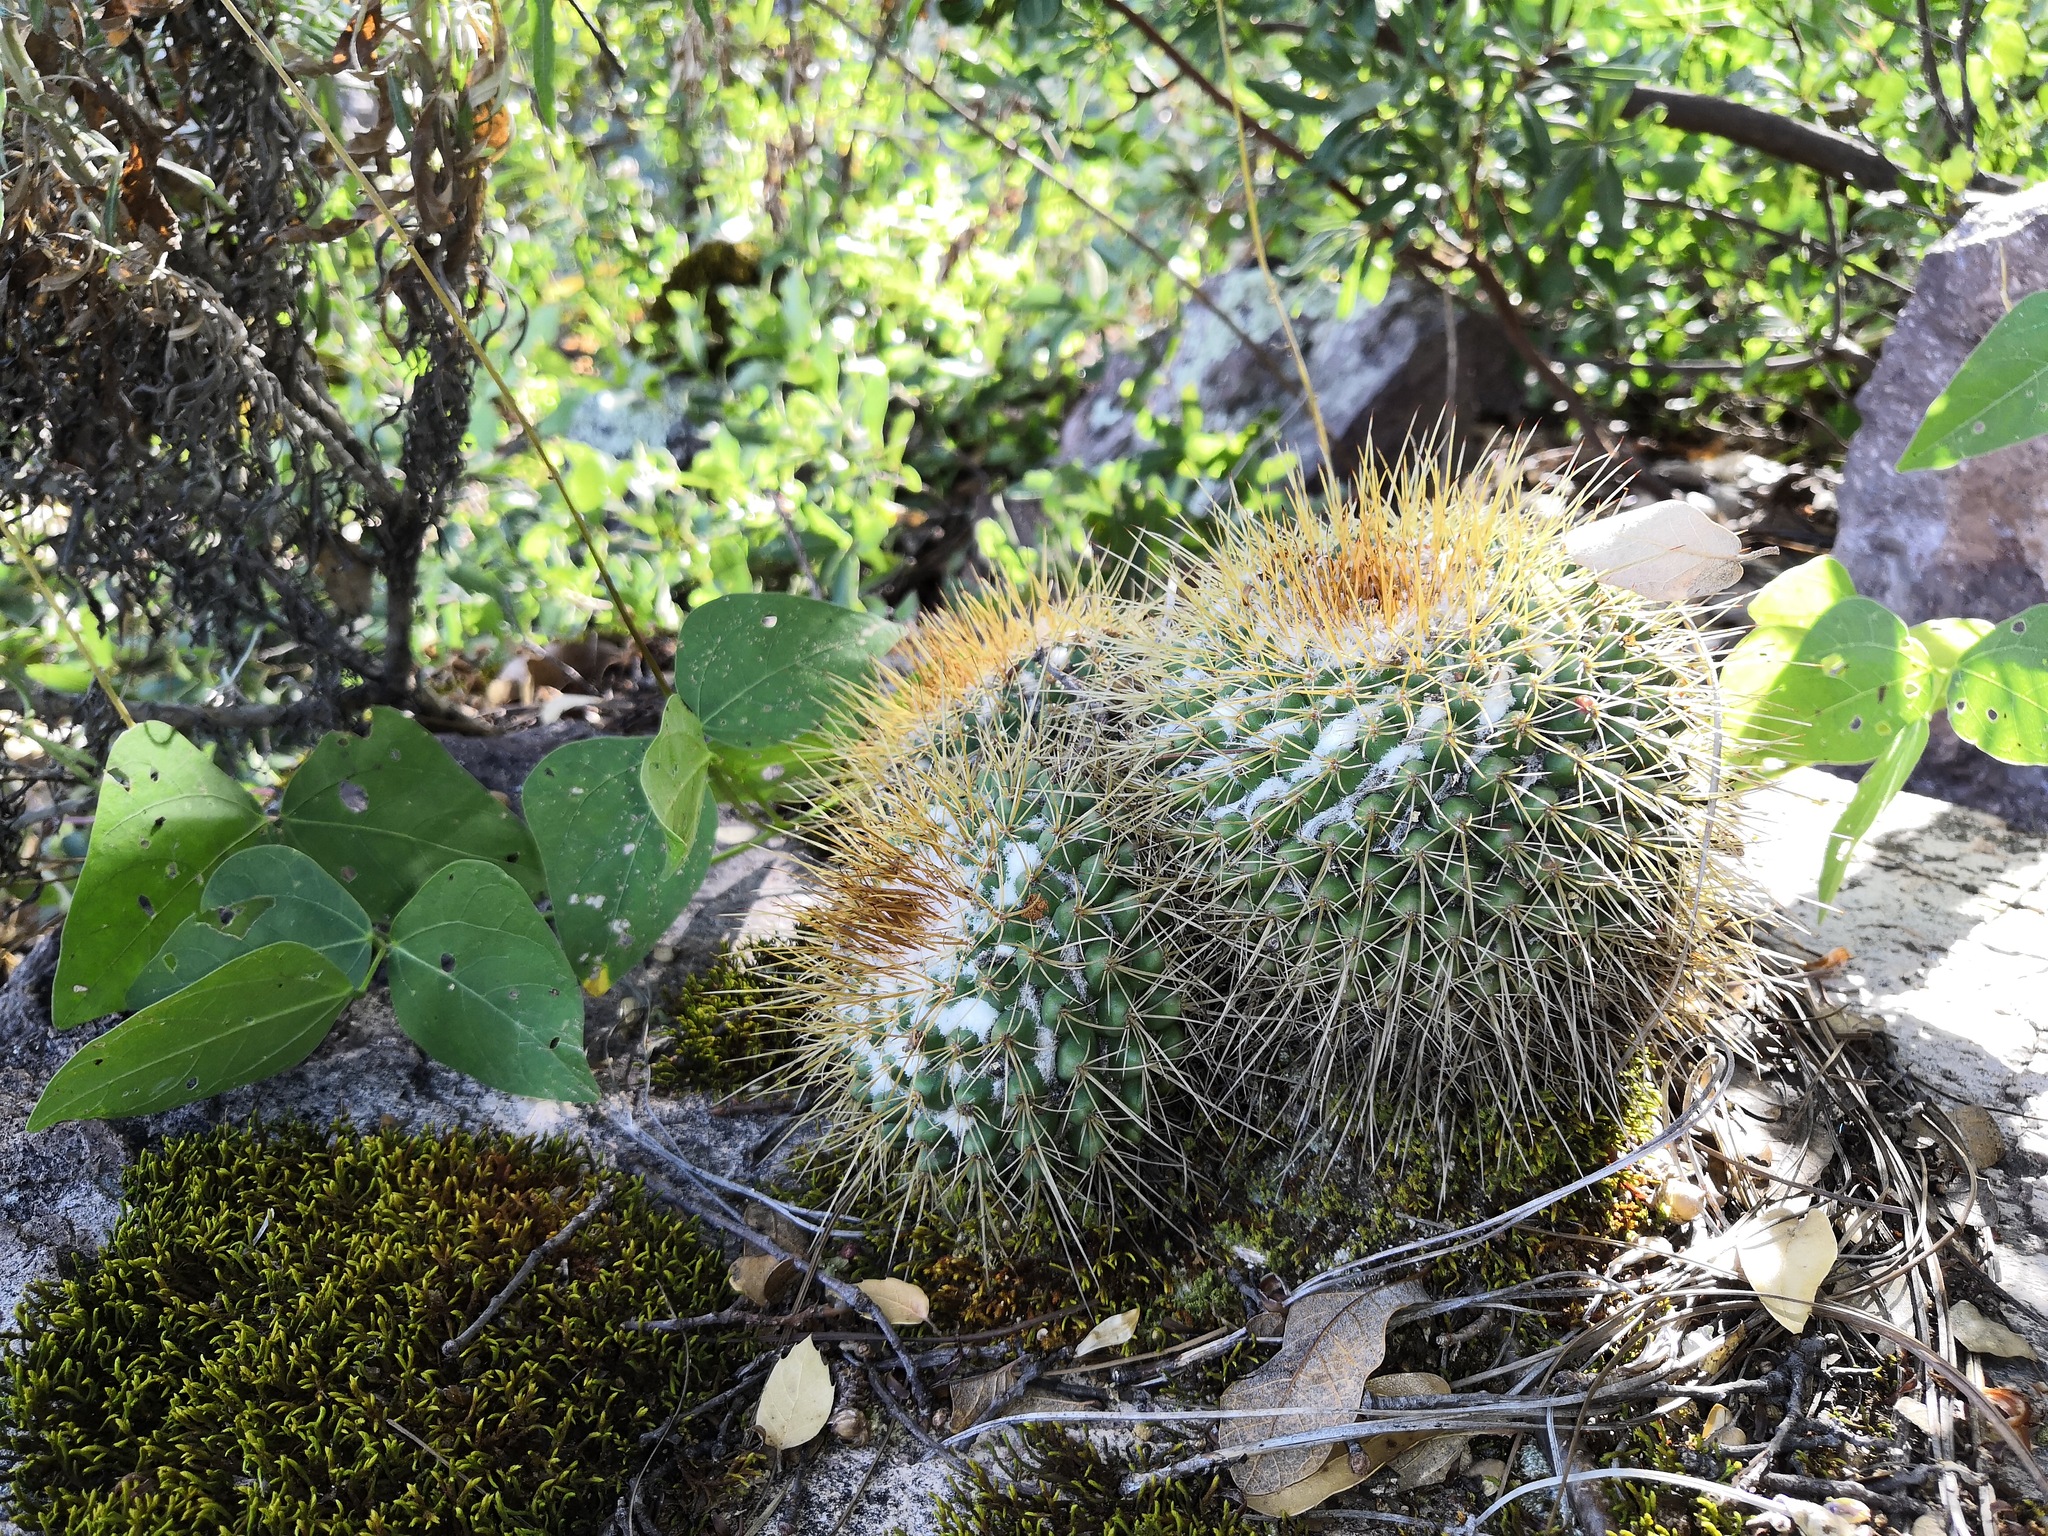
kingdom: Plantae
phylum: Tracheophyta
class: Magnoliopsida
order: Caryophyllales
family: Cactaceae
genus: Mammillaria
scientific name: Mammillaria petterssonii
